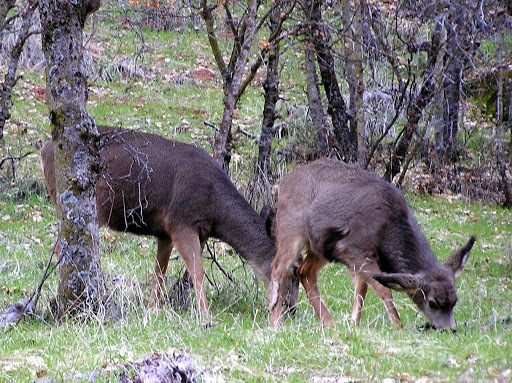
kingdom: Animalia
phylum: Chordata
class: Mammalia
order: Artiodactyla
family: Cervidae
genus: Odocoileus
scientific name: Odocoileus hemionus
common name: Mule deer
